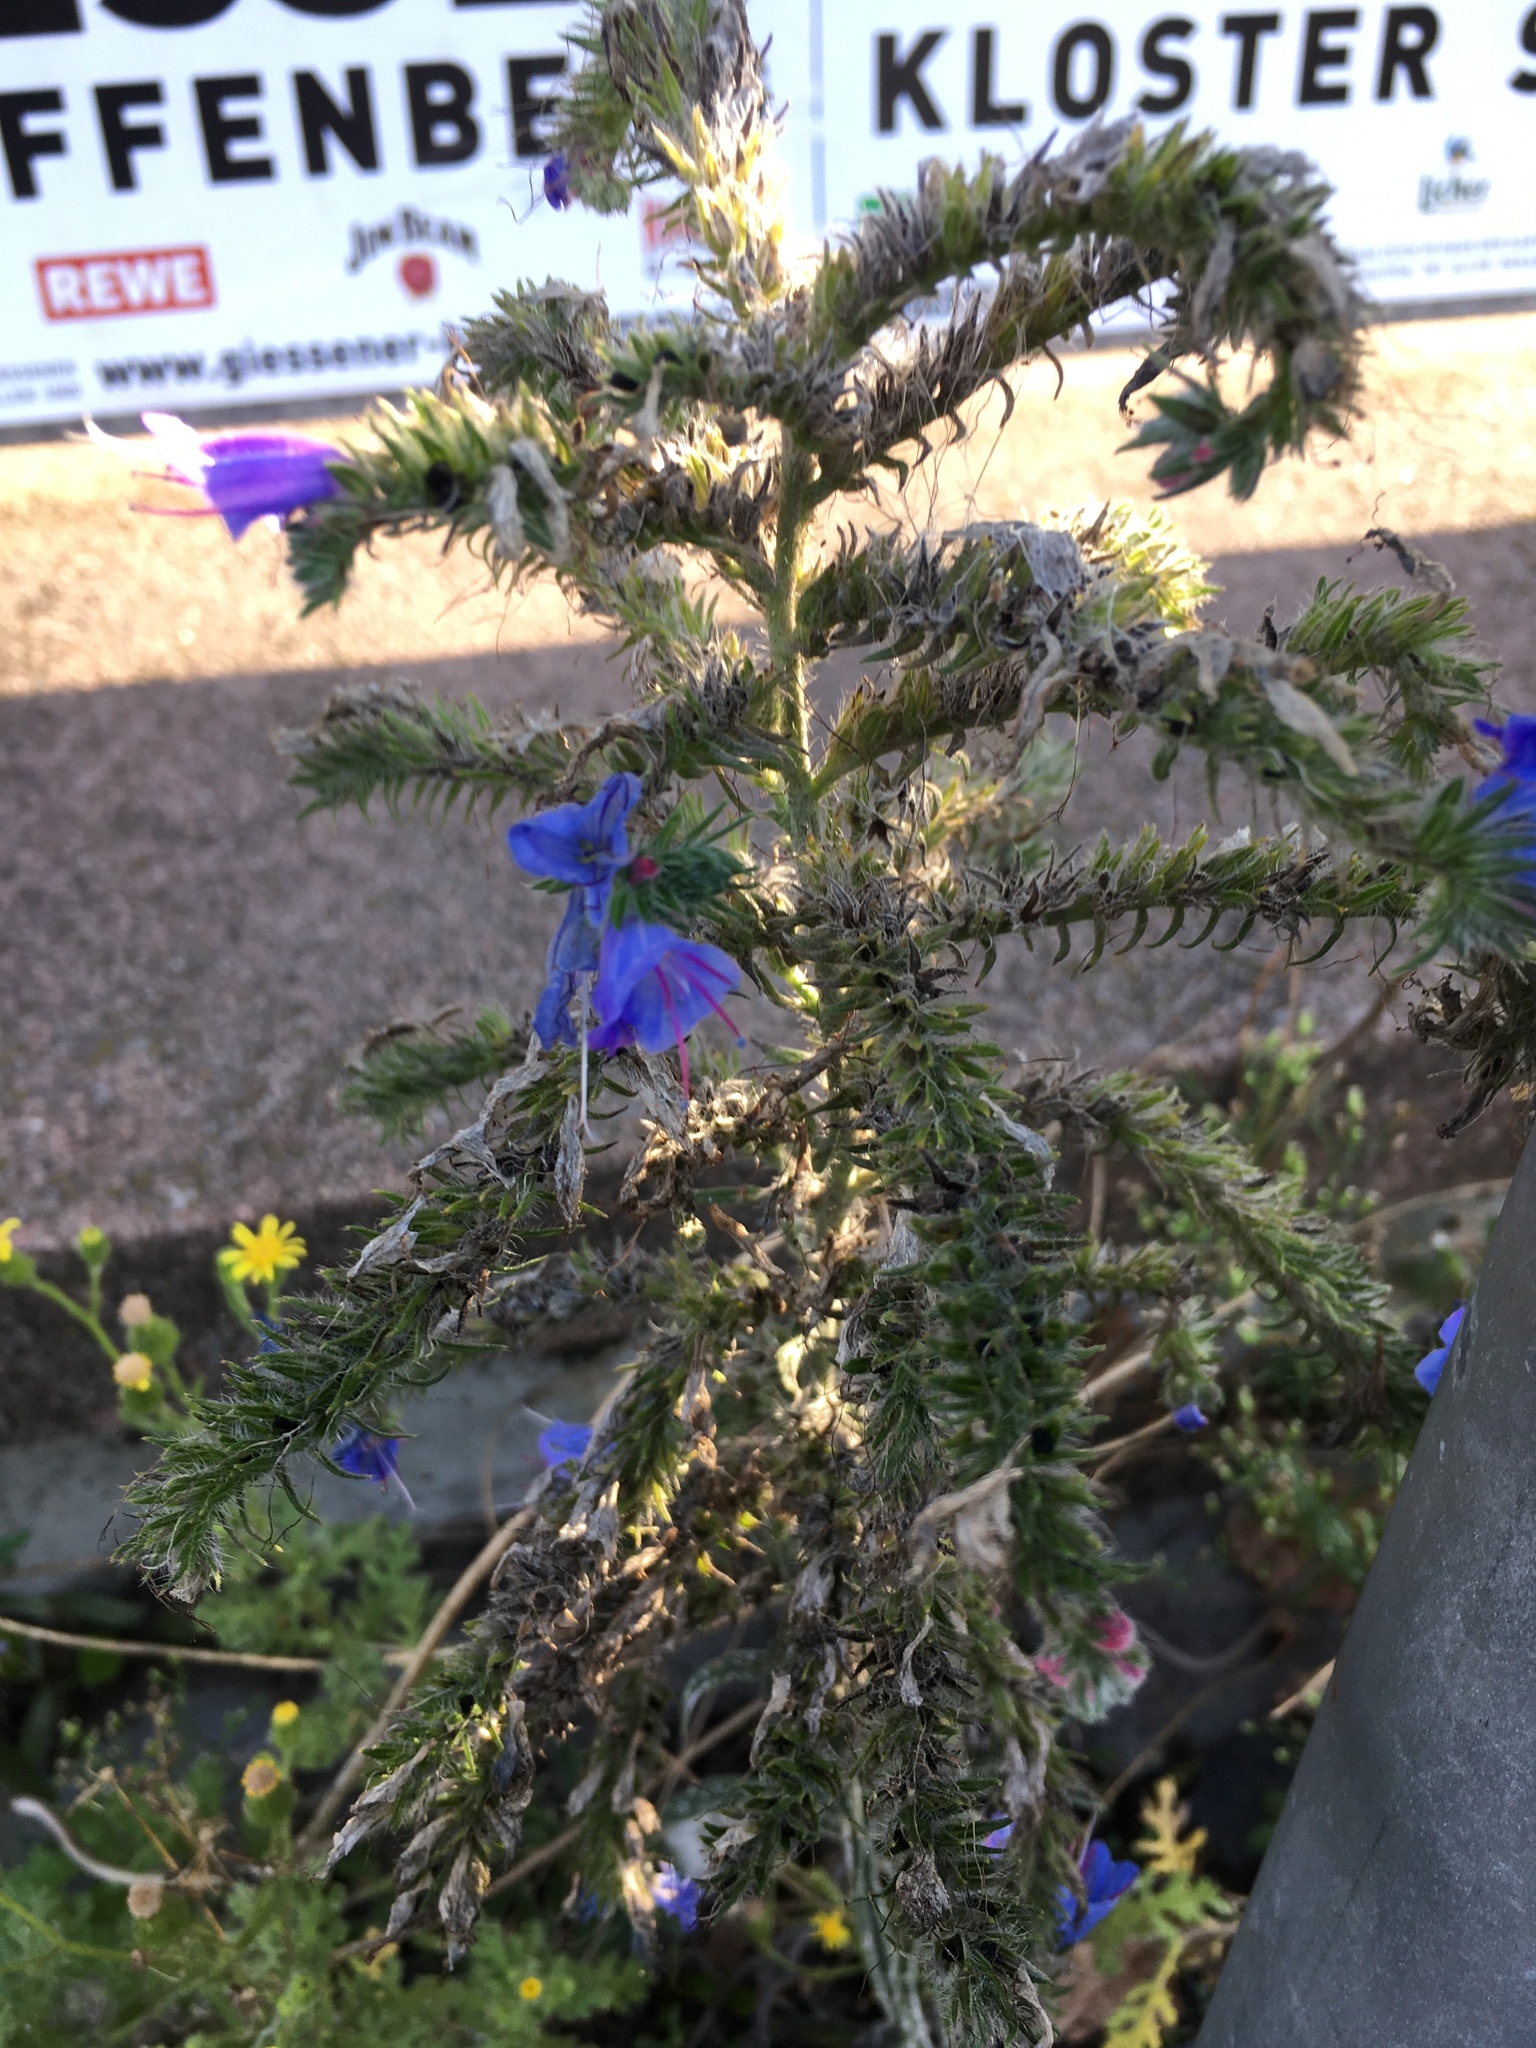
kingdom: Plantae
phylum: Tracheophyta
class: Magnoliopsida
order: Boraginales
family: Boraginaceae
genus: Echium
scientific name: Echium vulgare
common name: Common viper's bugloss
